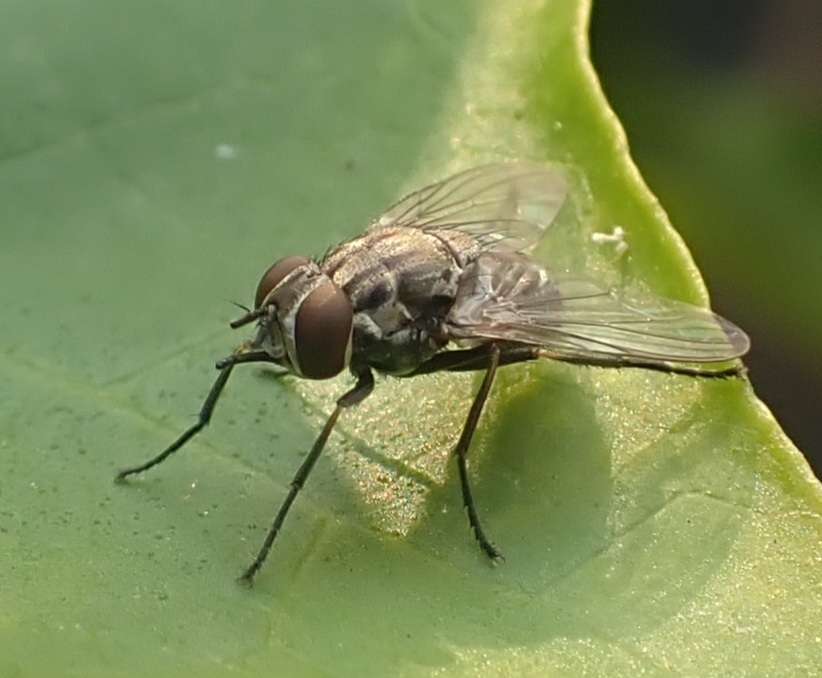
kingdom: Animalia
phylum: Arthropoda
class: Insecta
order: Diptera
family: Muscidae
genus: Stomoxys
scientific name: Stomoxys calcitrans
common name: Stable fly
